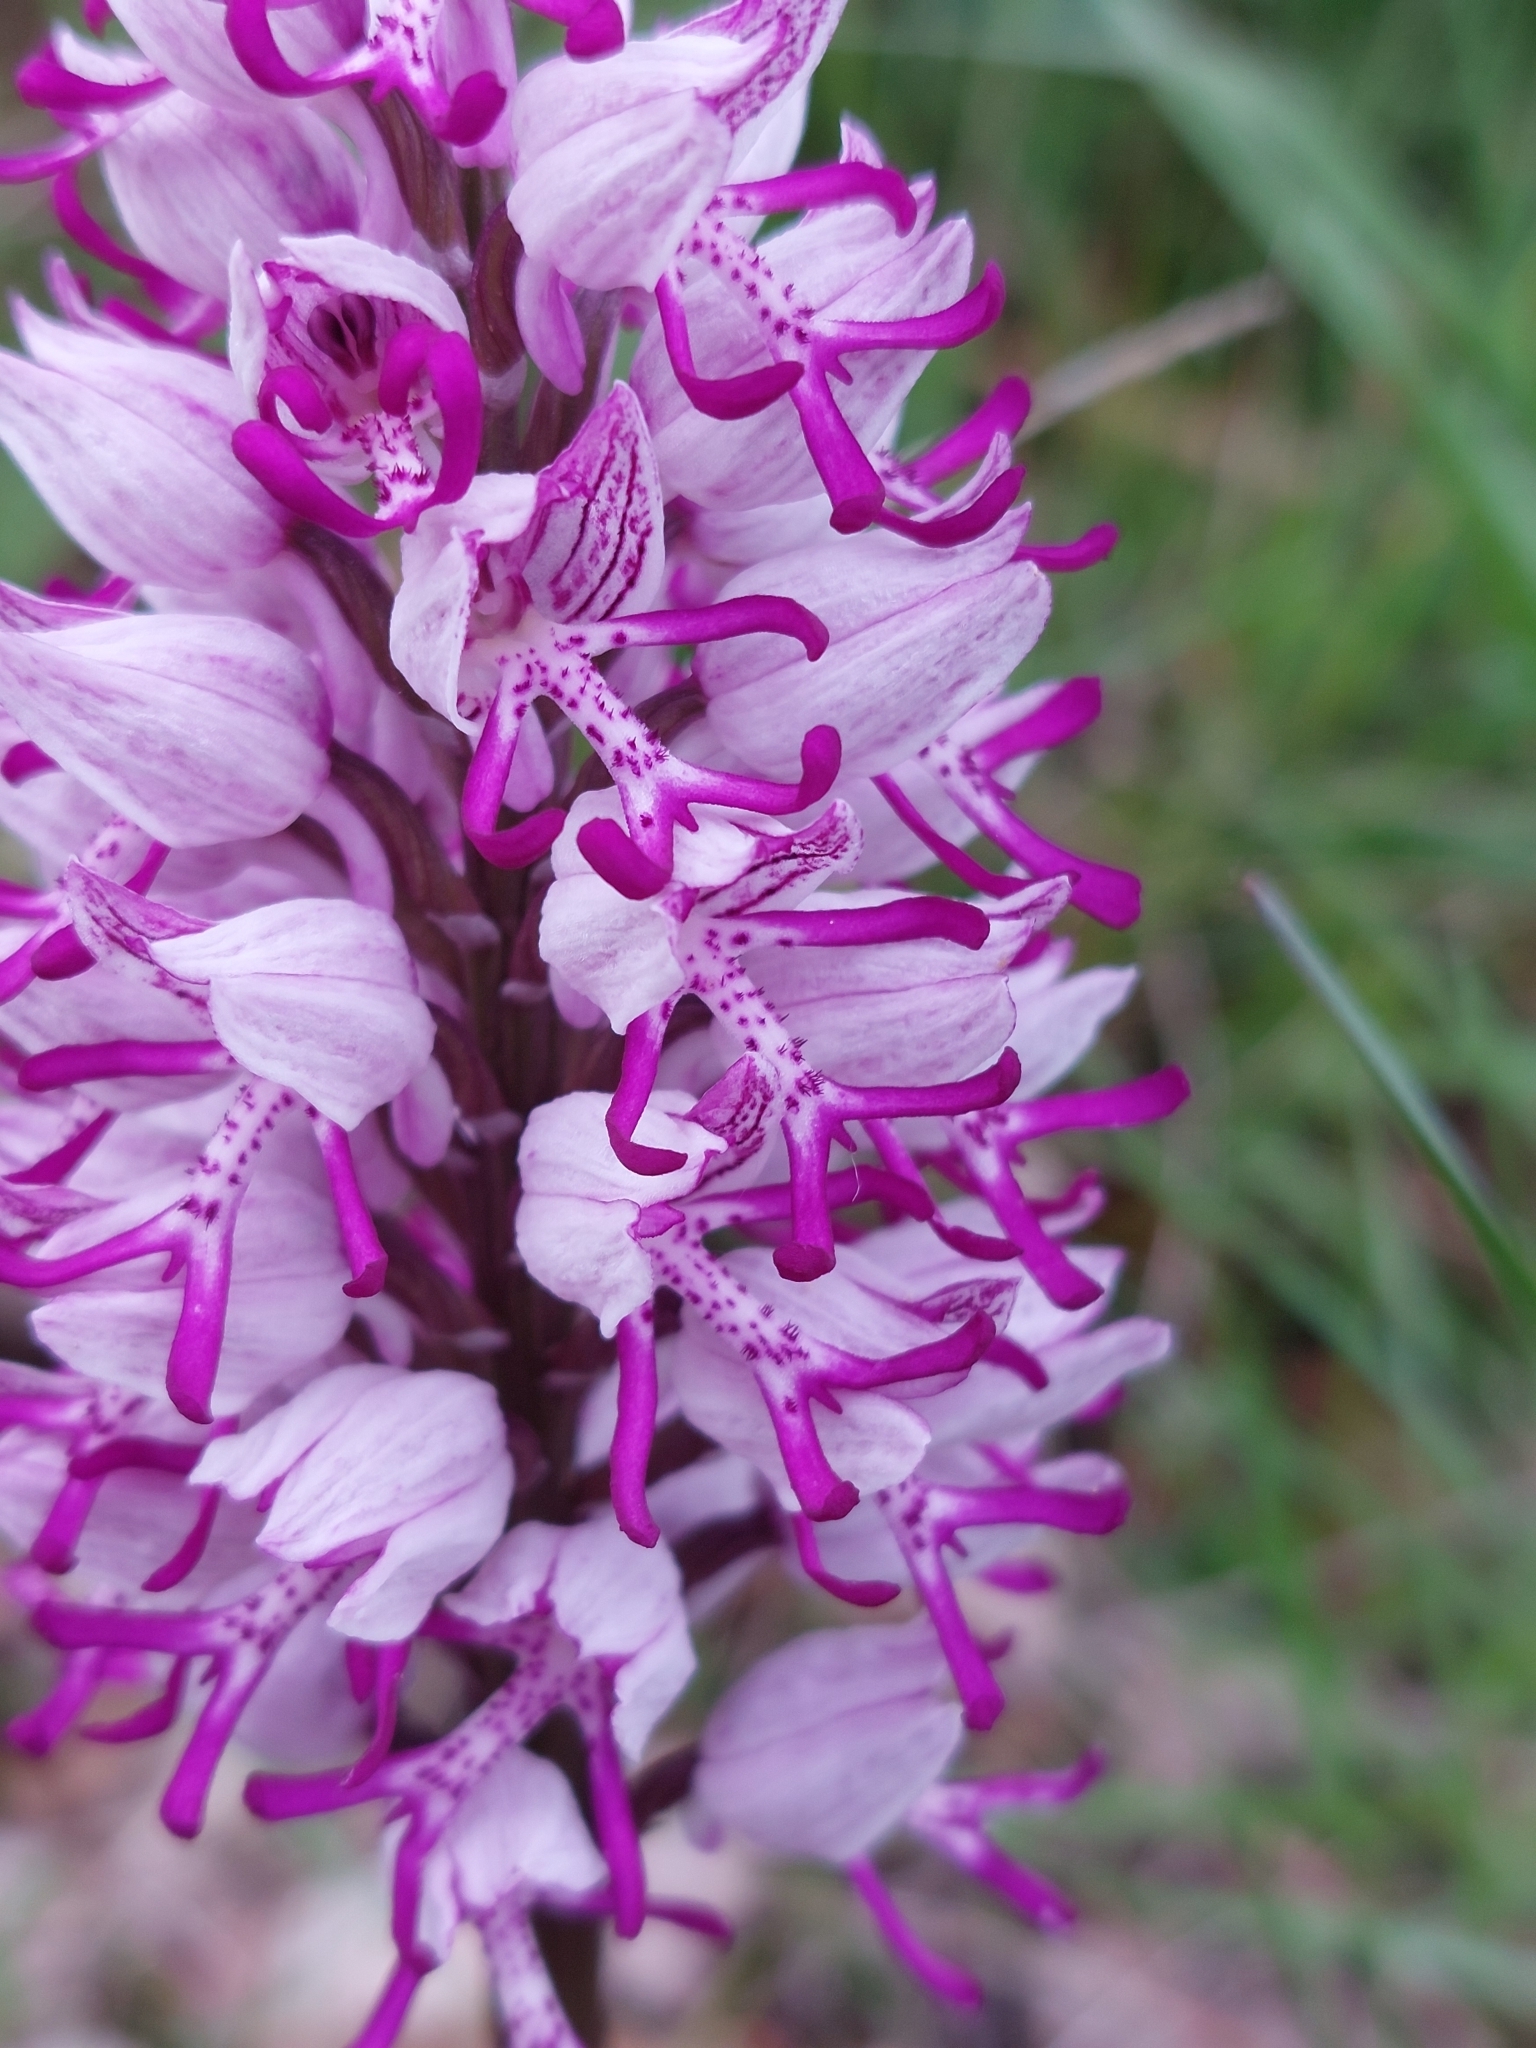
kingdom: Plantae
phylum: Tracheophyta
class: Liliopsida
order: Asparagales
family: Orchidaceae
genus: Orchis
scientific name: Orchis simia
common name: Monkey orchid
